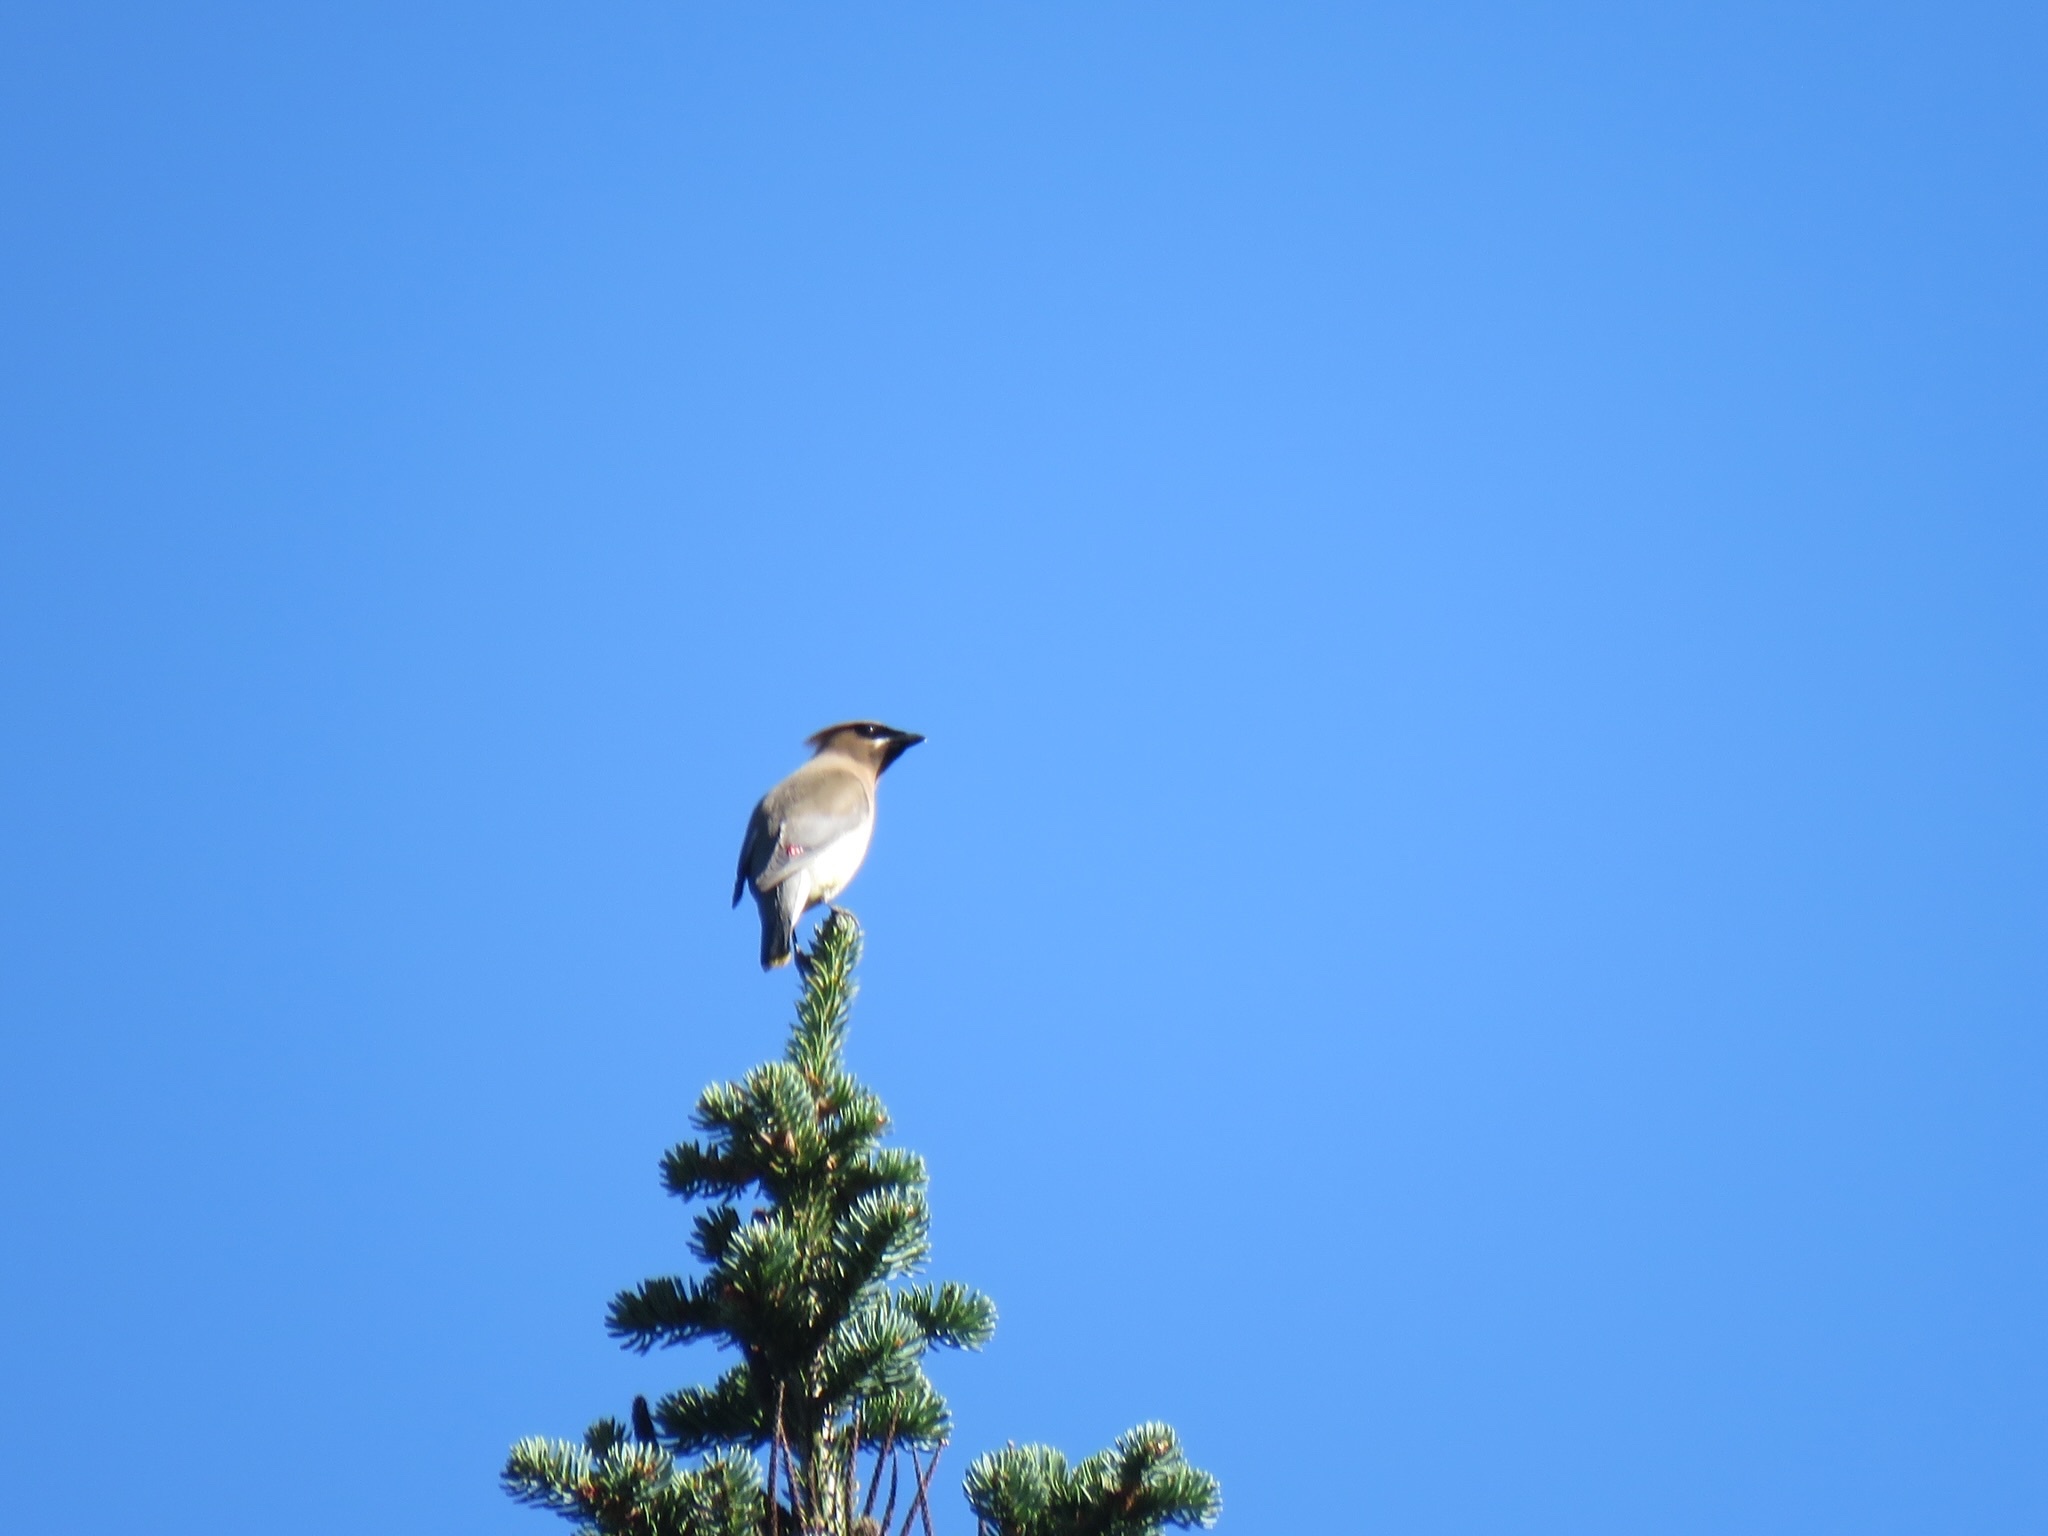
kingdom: Animalia
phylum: Chordata
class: Aves
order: Passeriformes
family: Bombycillidae
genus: Bombycilla
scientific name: Bombycilla cedrorum
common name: Cedar waxwing
